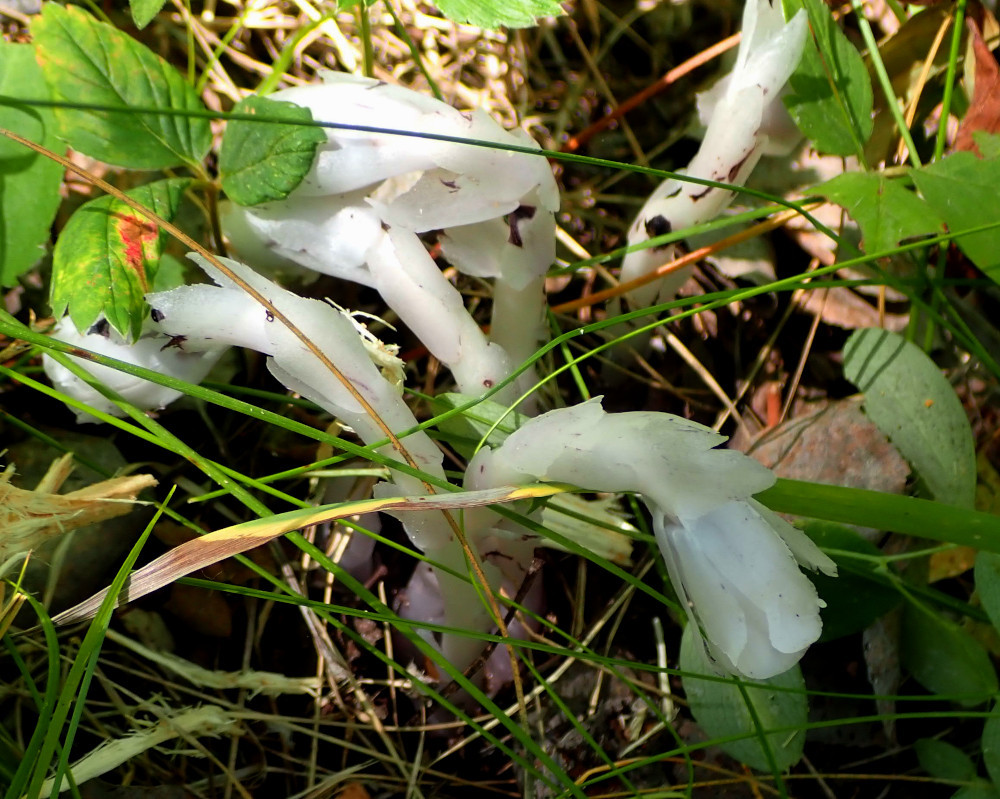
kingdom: Plantae
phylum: Tracheophyta
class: Magnoliopsida
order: Ericales
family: Ericaceae
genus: Monotropa
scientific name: Monotropa uniflora
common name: Convulsion root
